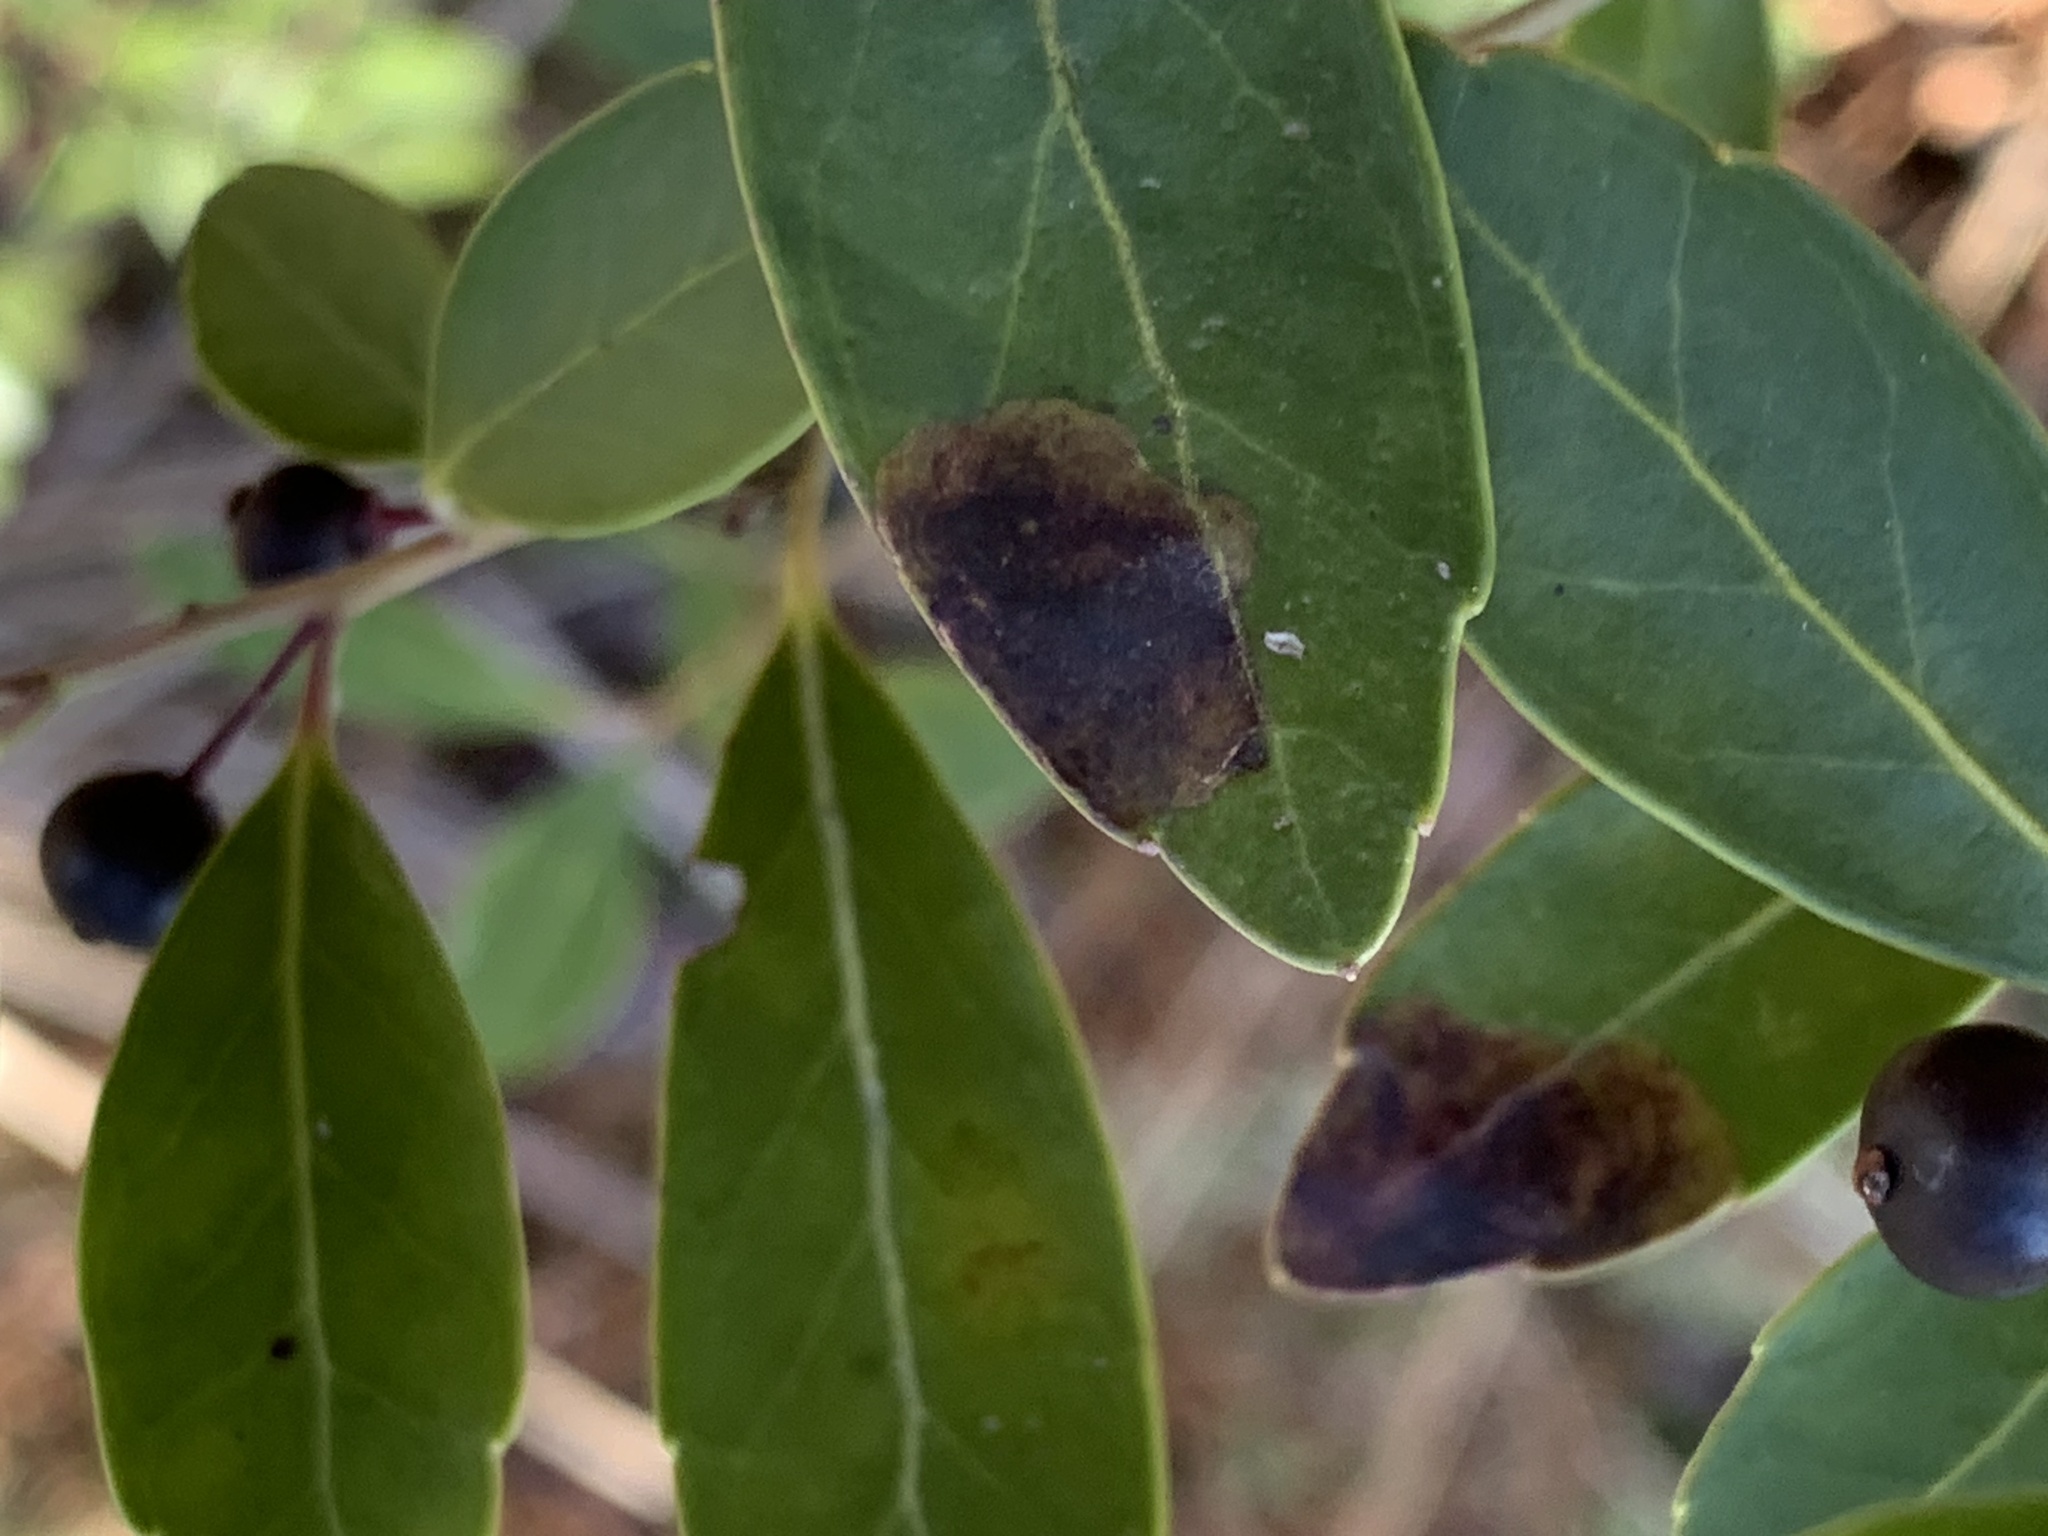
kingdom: Animalia
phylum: Arthropoda
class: Insecta
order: Diptera
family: Agromyzidae
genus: Phytomyza
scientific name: Phytomyza glabricola
